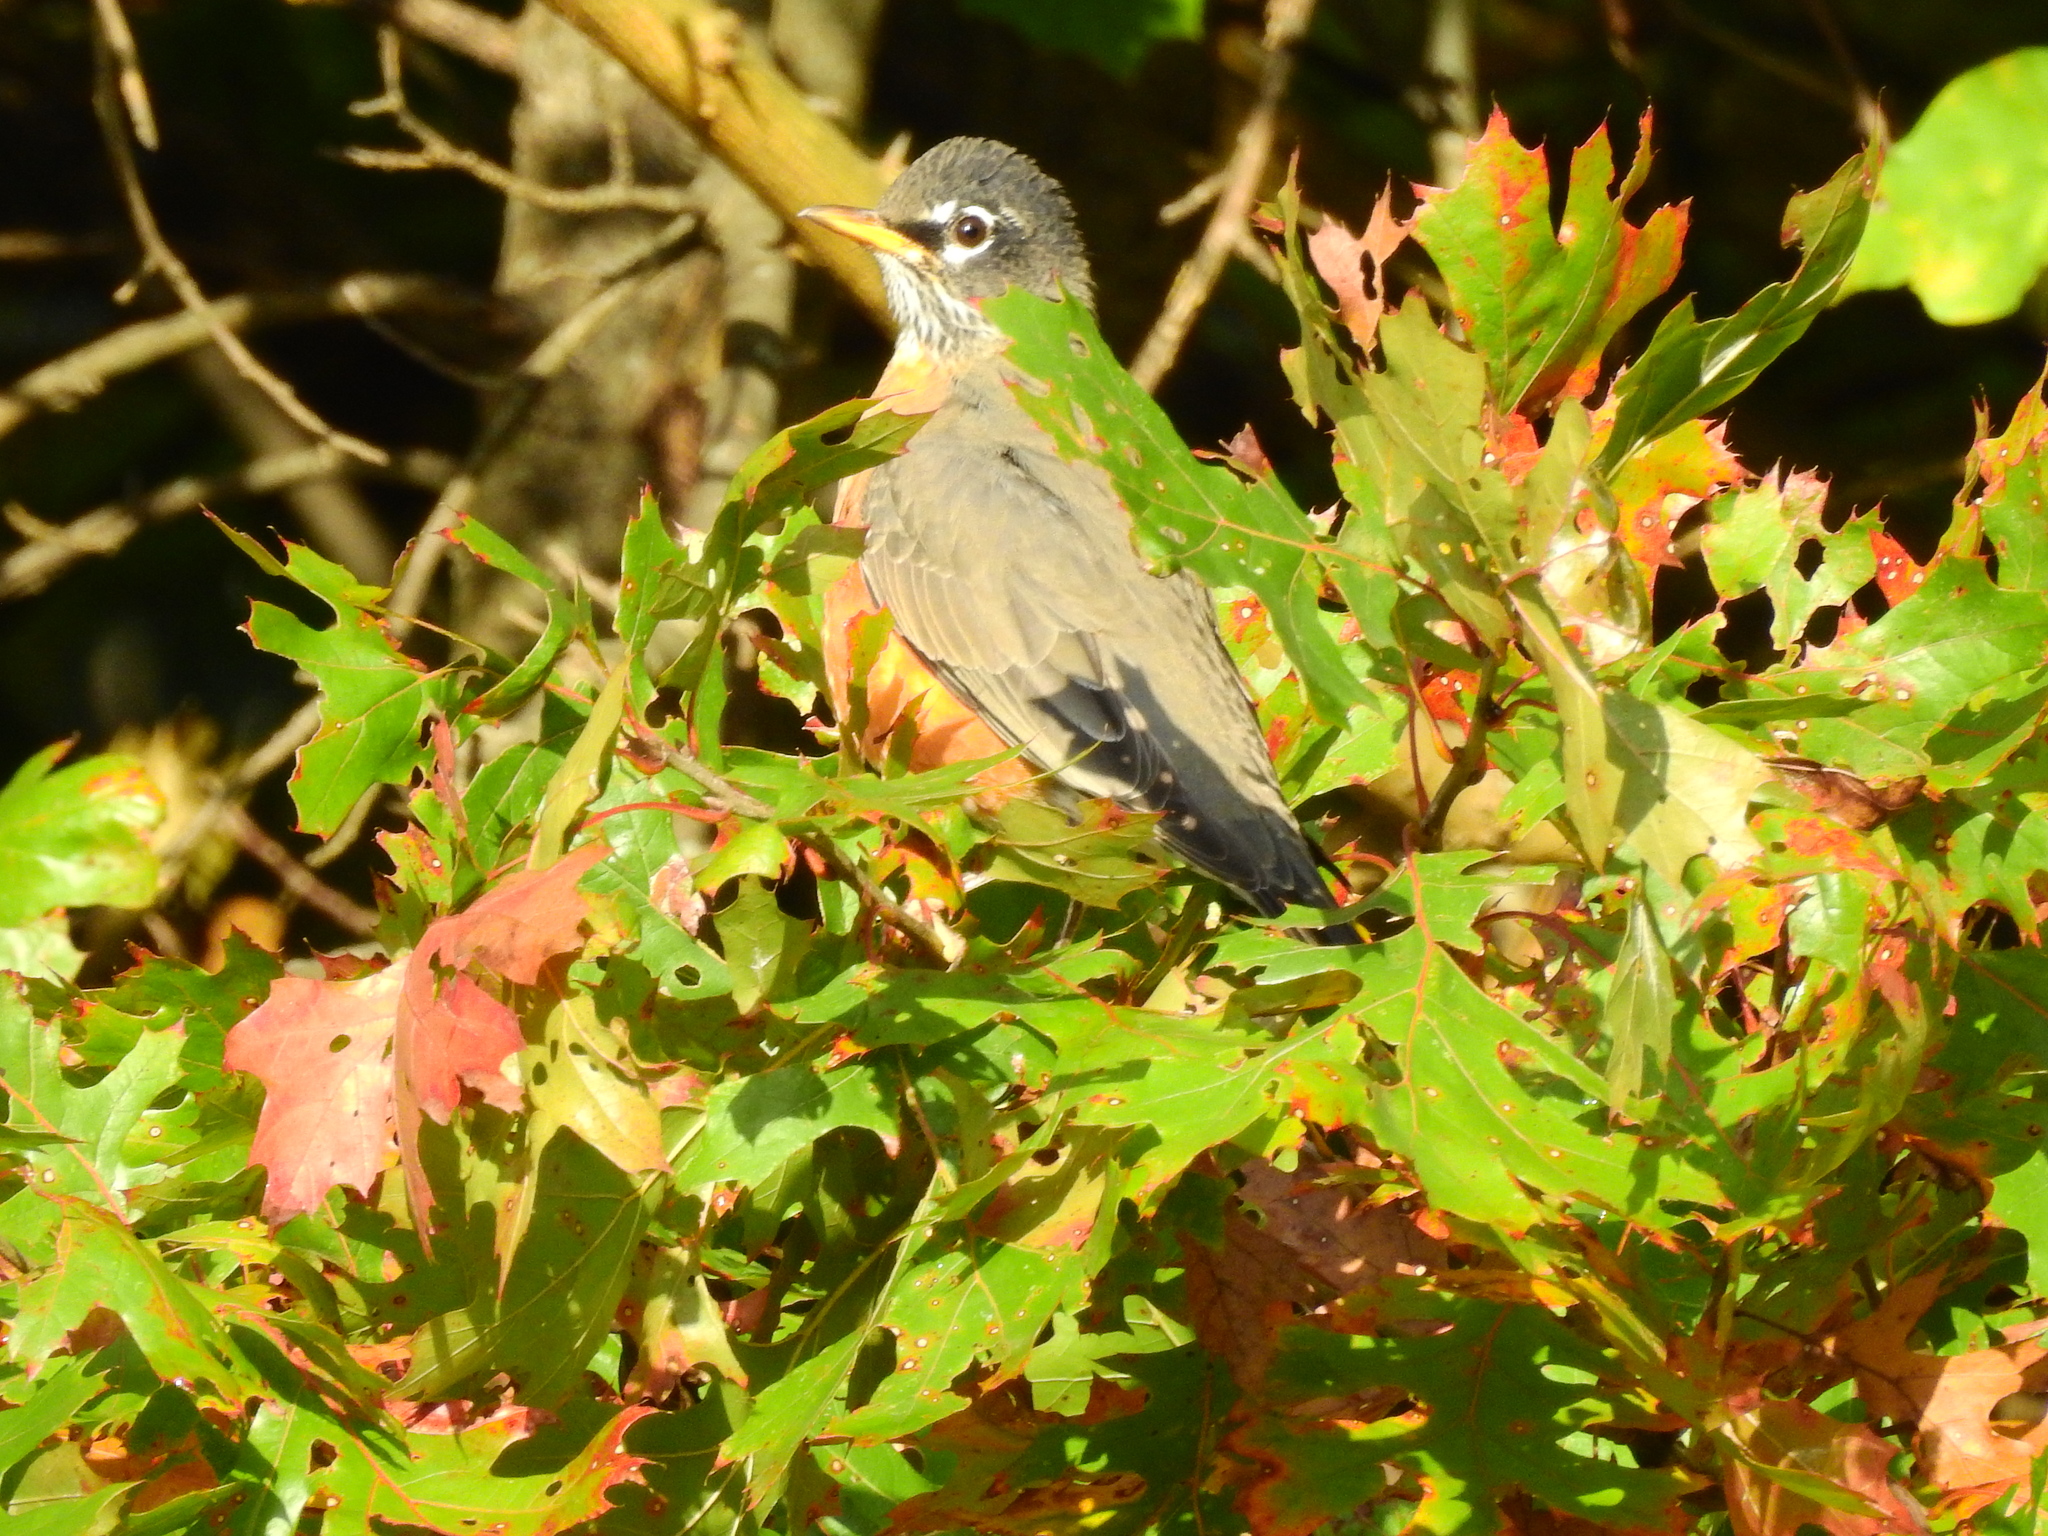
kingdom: Animalia
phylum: Chordata
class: Aves
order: Passeriformes
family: Turdidae
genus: Turdus
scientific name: Turdus migratorius
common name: American robin
